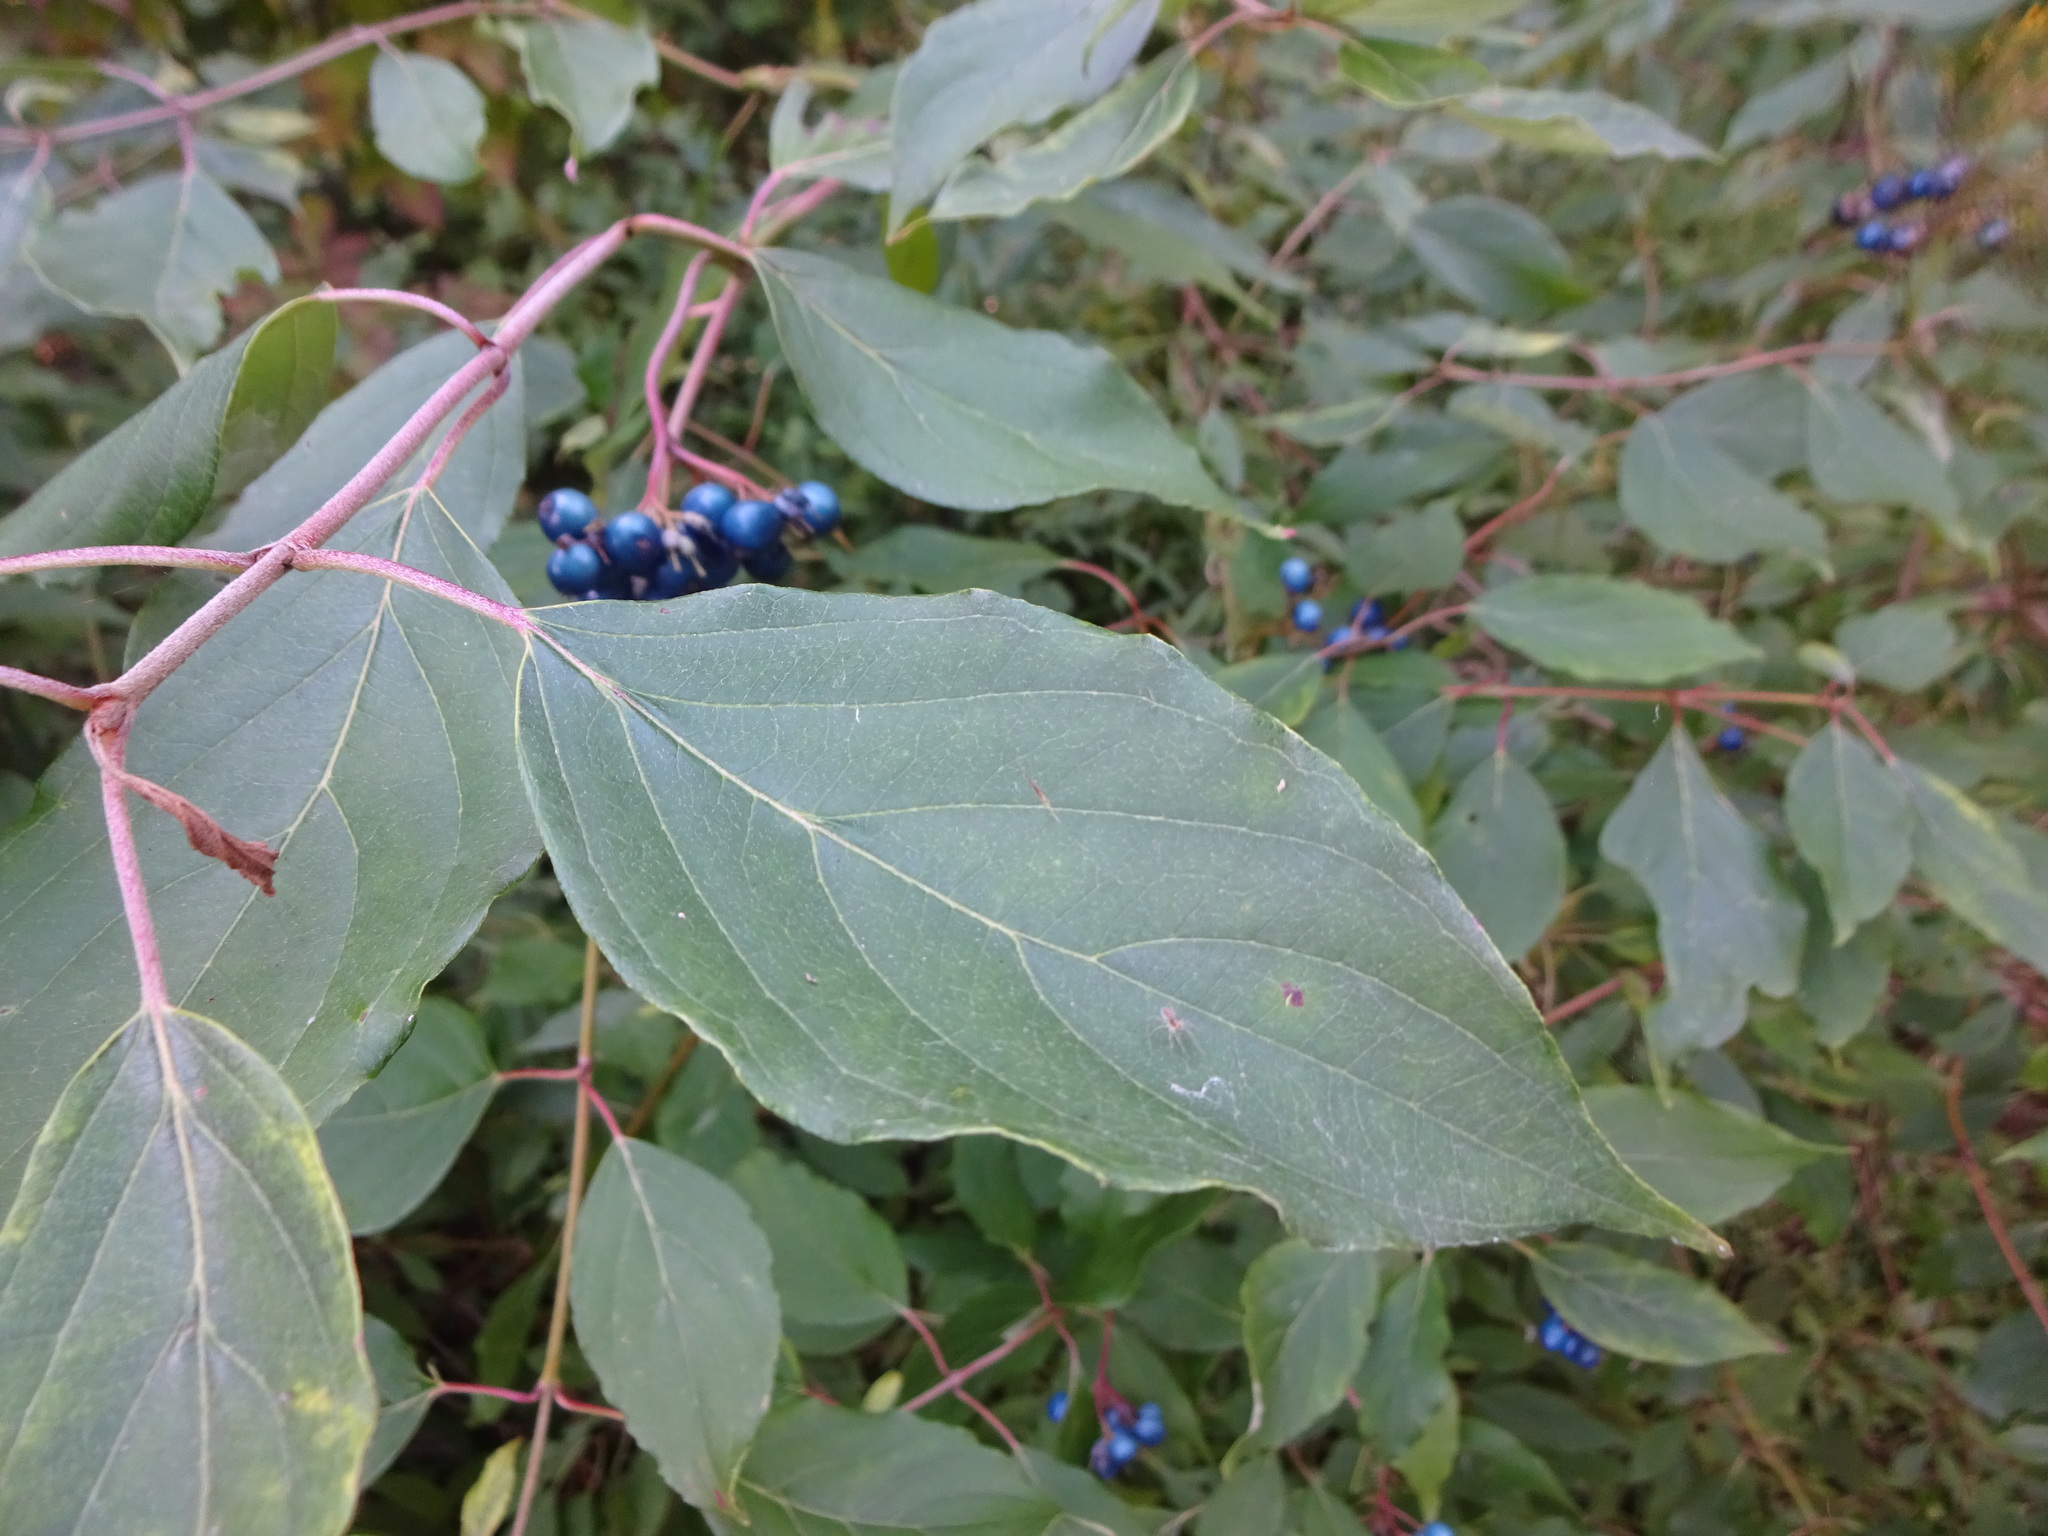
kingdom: Plantae
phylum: Tracheophyta
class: Magnoliopsida
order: Cornales
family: Cornaceae
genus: Cornus
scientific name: Cornus amomum
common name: Silky dogwood
